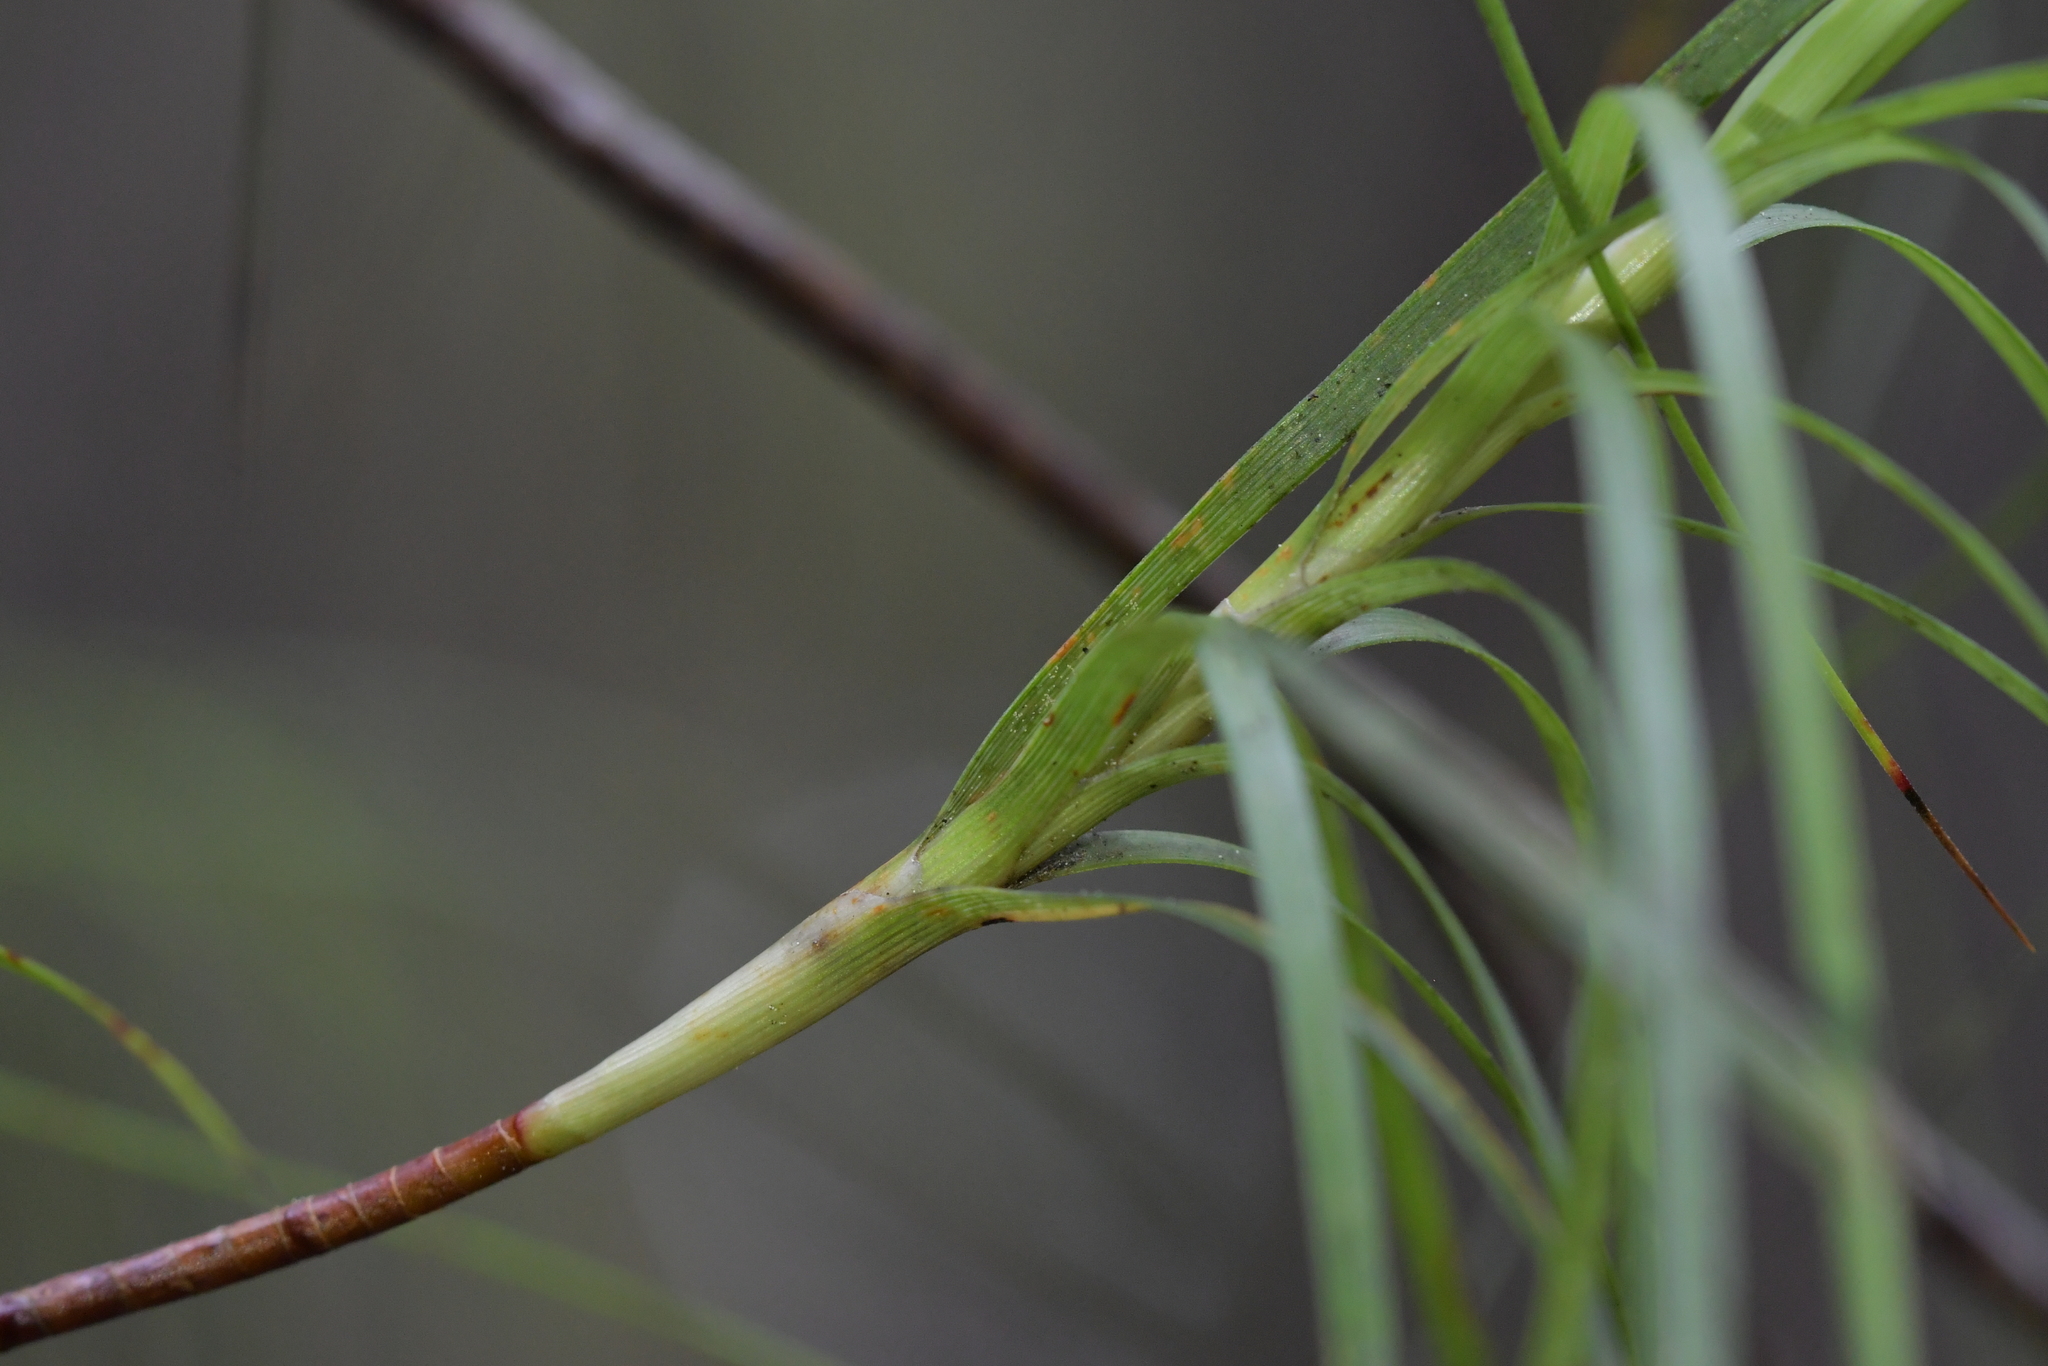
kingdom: Plantae
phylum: Tracheophyta
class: Magnoliopsida
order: Ericales
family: Ericaceae
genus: Dracophyllum
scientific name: Dracophyllum filifolium
